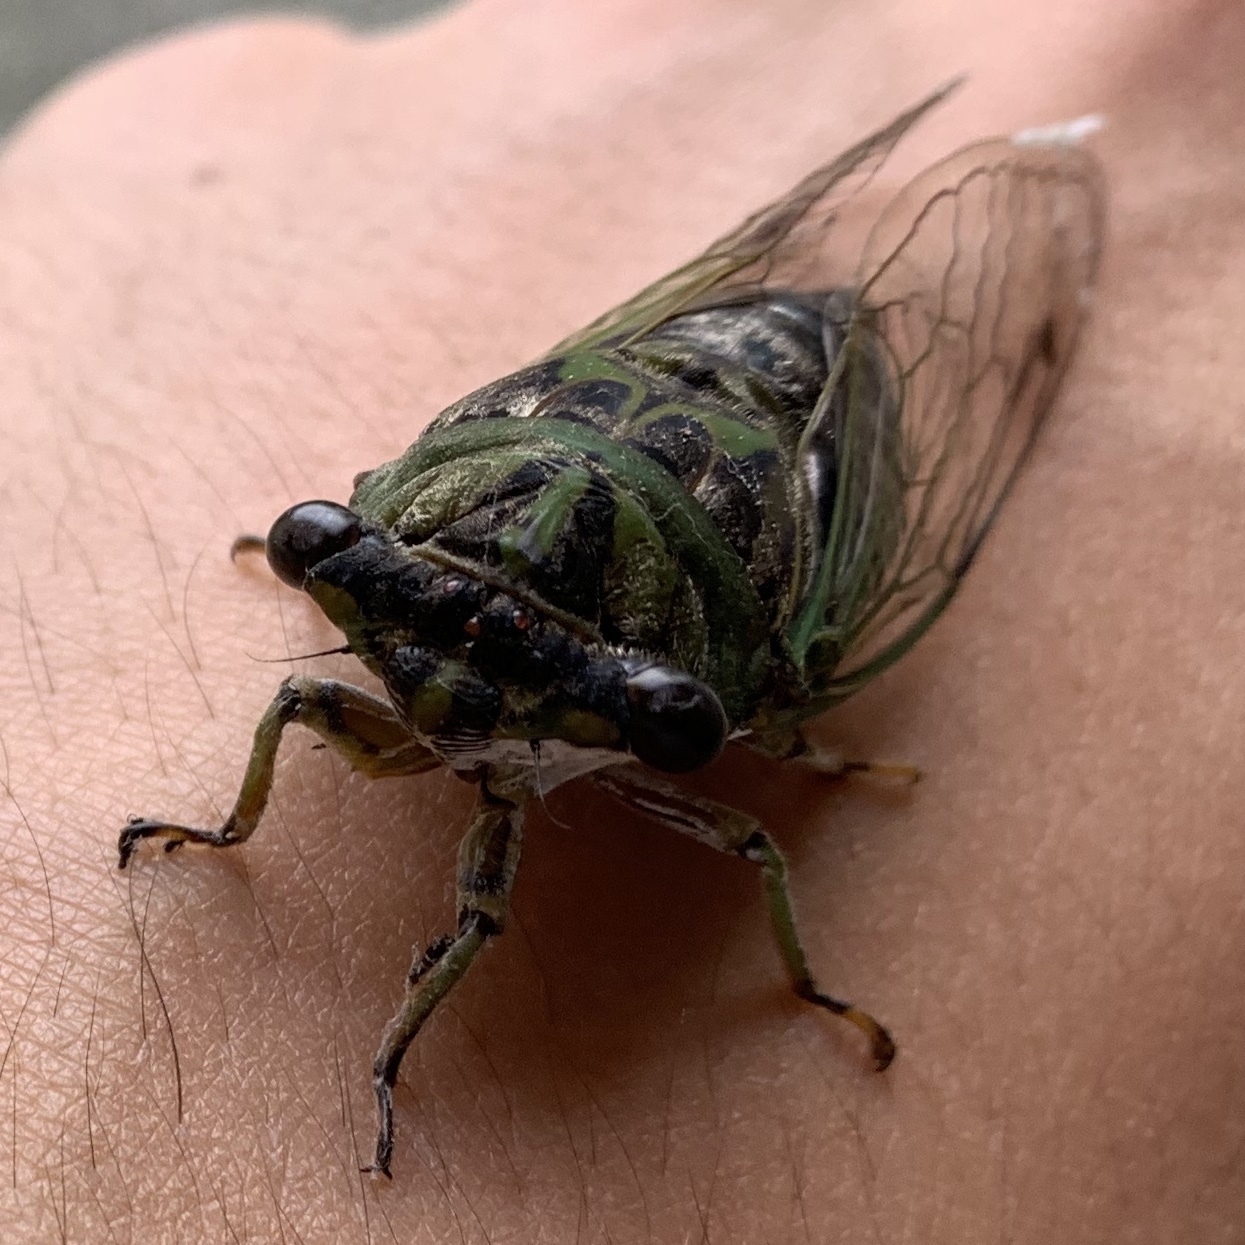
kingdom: Animalia
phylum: Arthropoda
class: Insecta
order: Hemiptera
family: Cicadidae
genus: Neotibicen
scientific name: Neotibicen winnemanna
